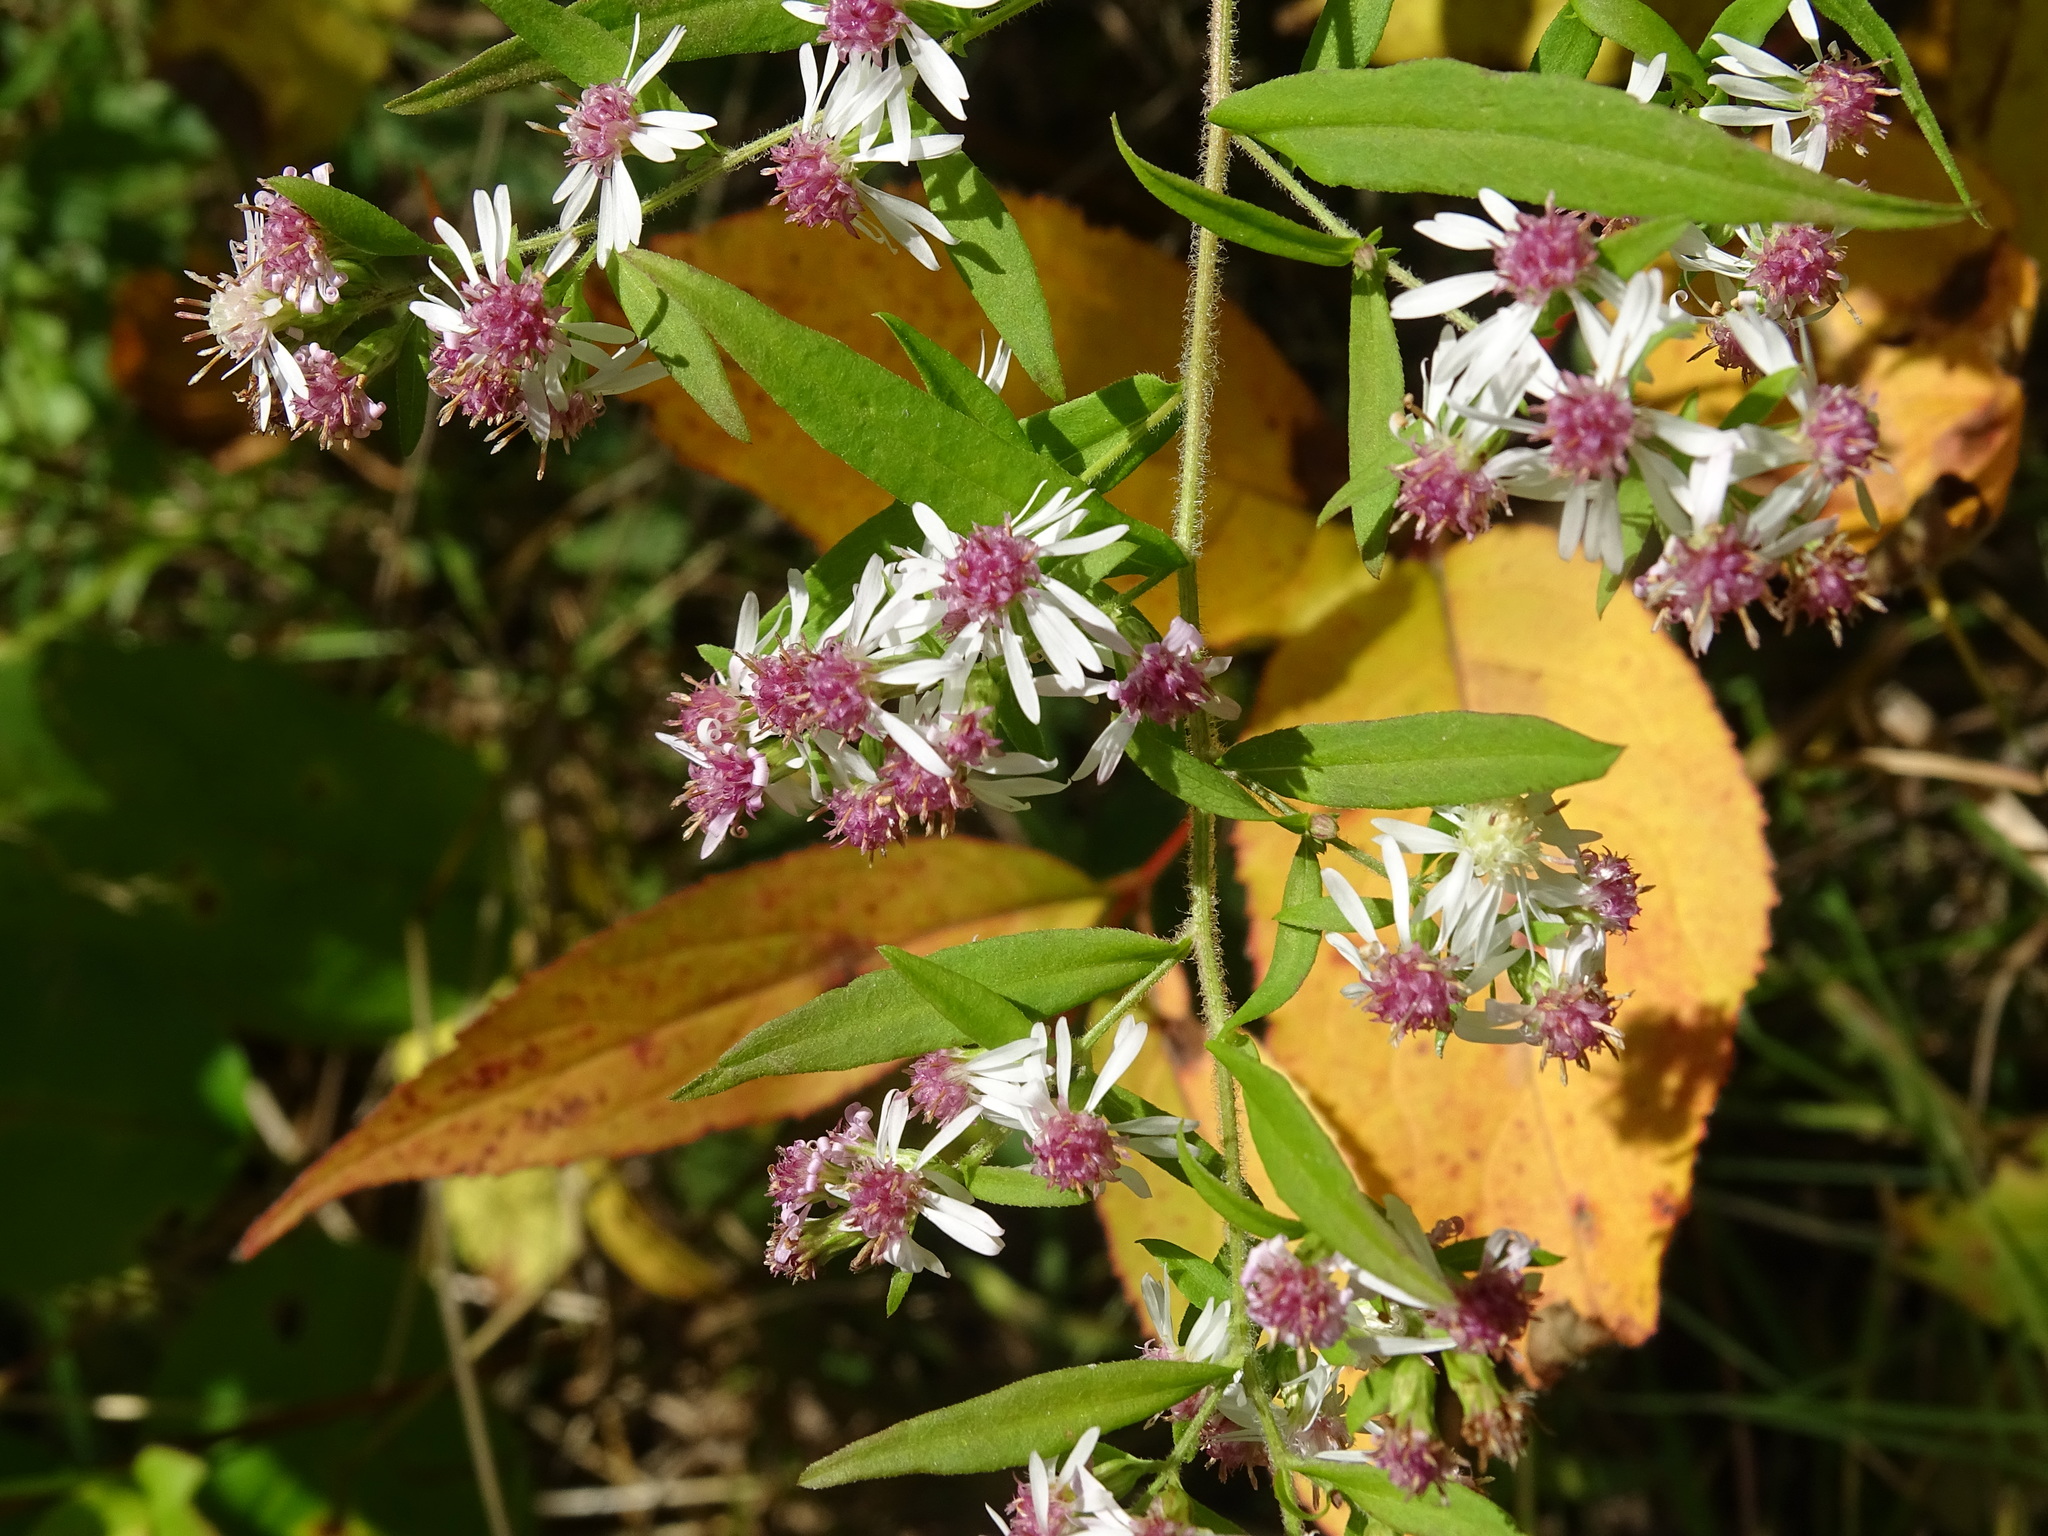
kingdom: Plantae
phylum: Tracheophyta
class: Magnoliopsida
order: Asterales
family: Asteraceae
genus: Symphyotrichum
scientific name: Symphyotrichum lateriflorum
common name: Calico aster
